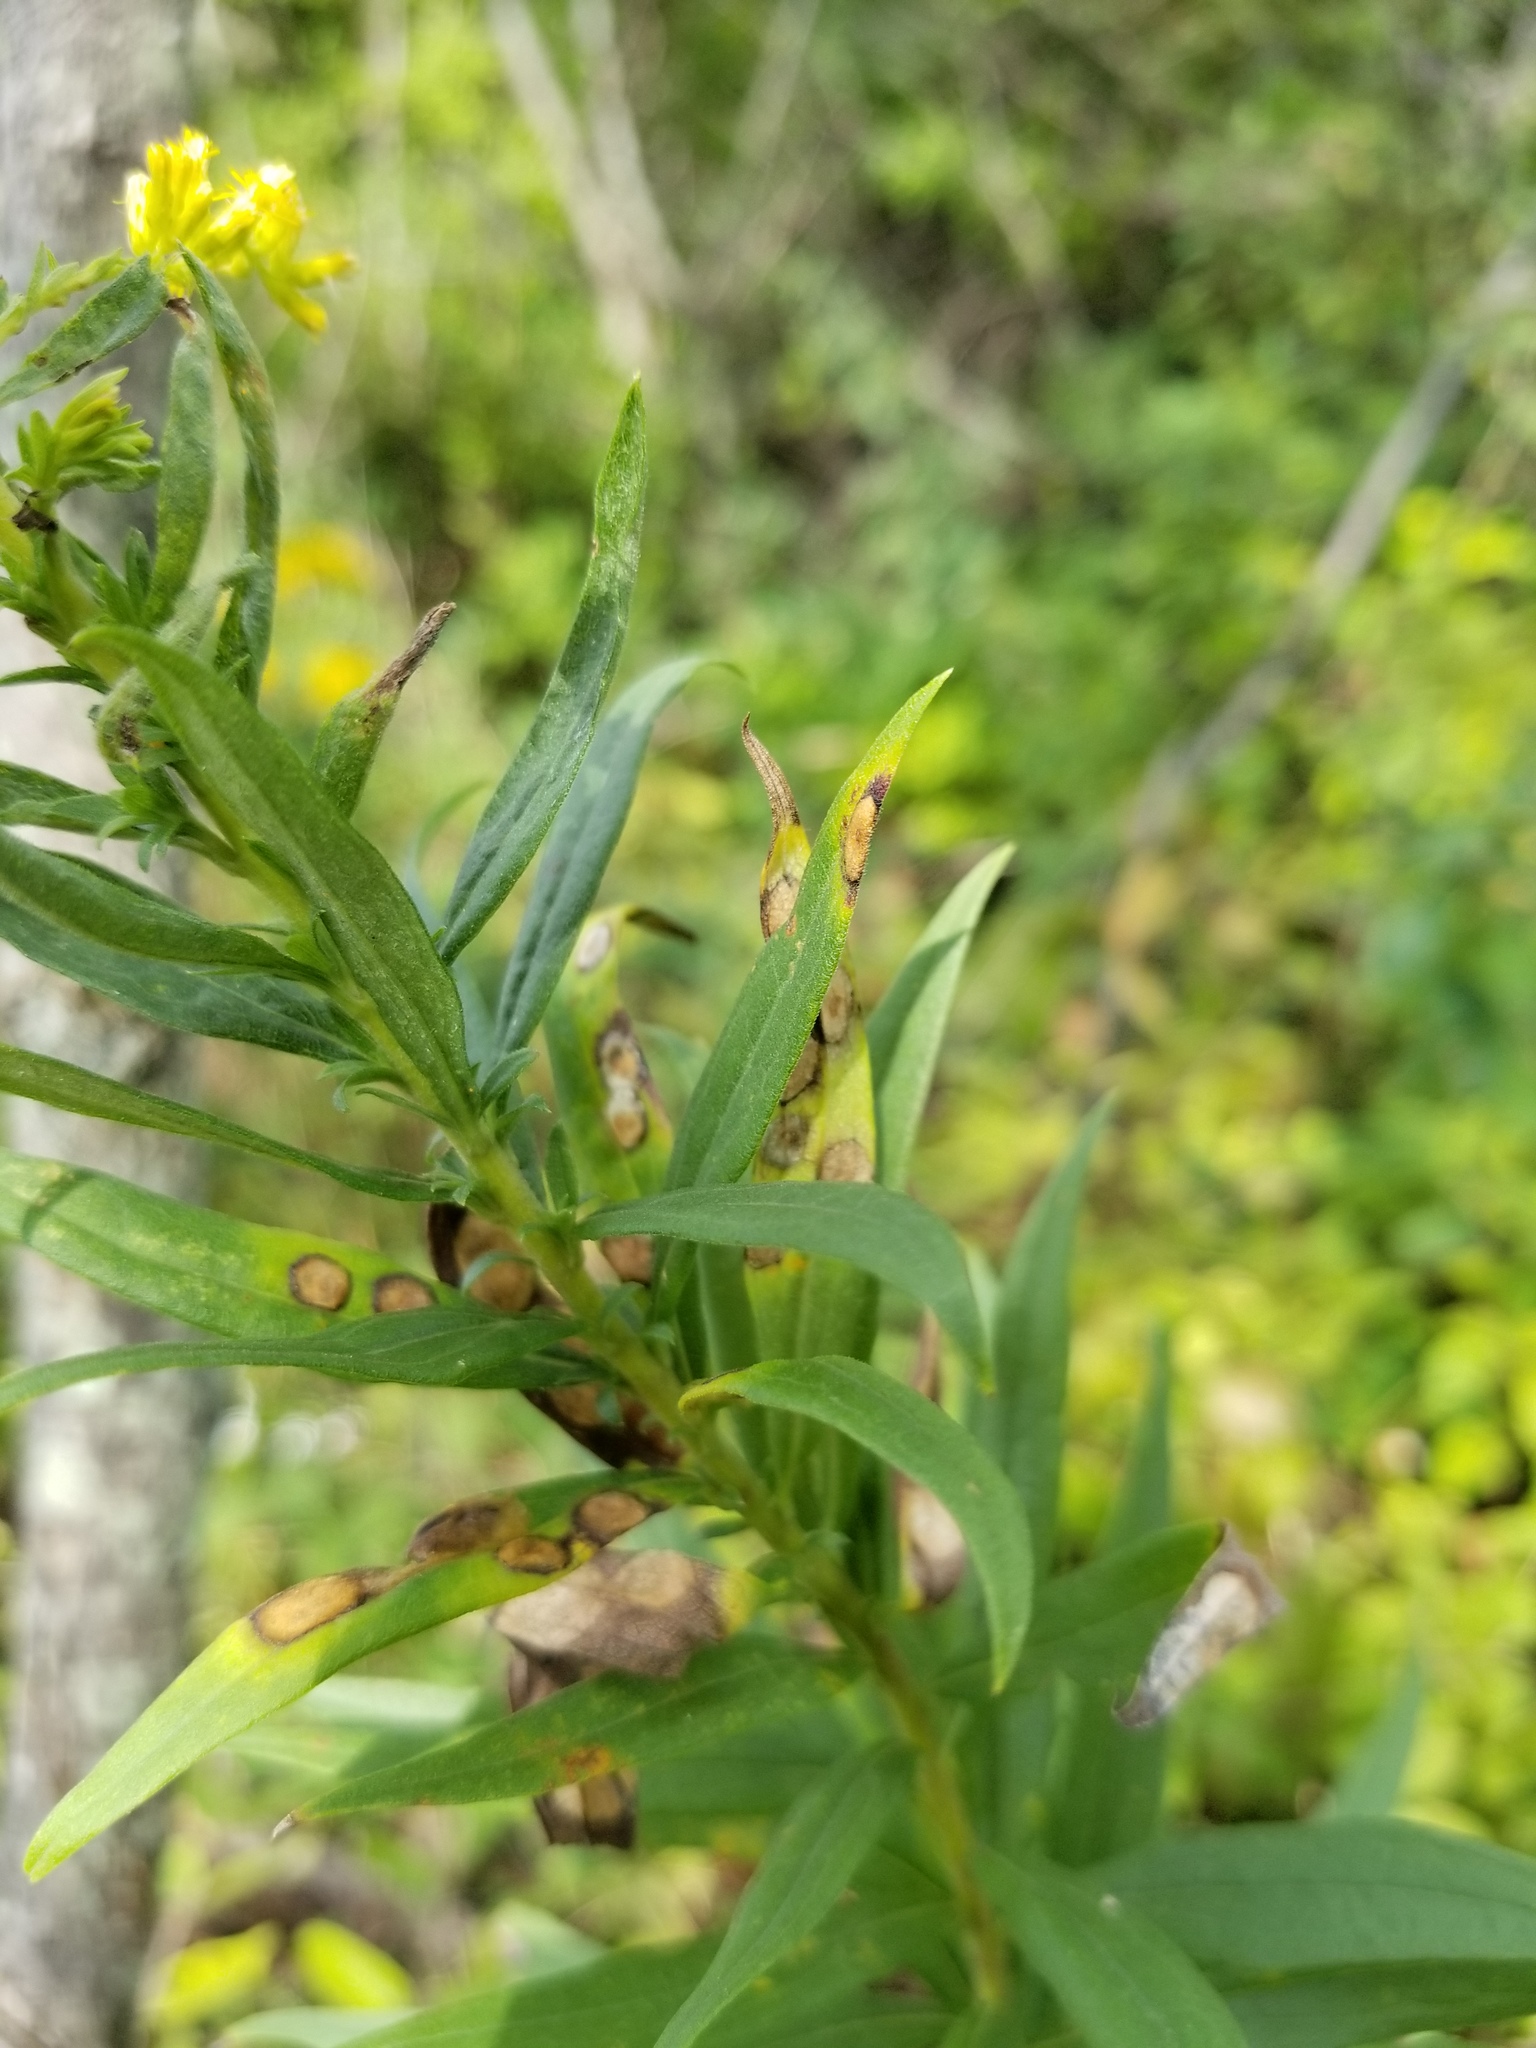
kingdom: Animalia
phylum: Arthropoda
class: Insecta
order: Diptera
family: Cecidomyiidae
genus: Asteromyia
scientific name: Asteromyia carbonifera
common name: Carbonifera goldenrod gall midge
